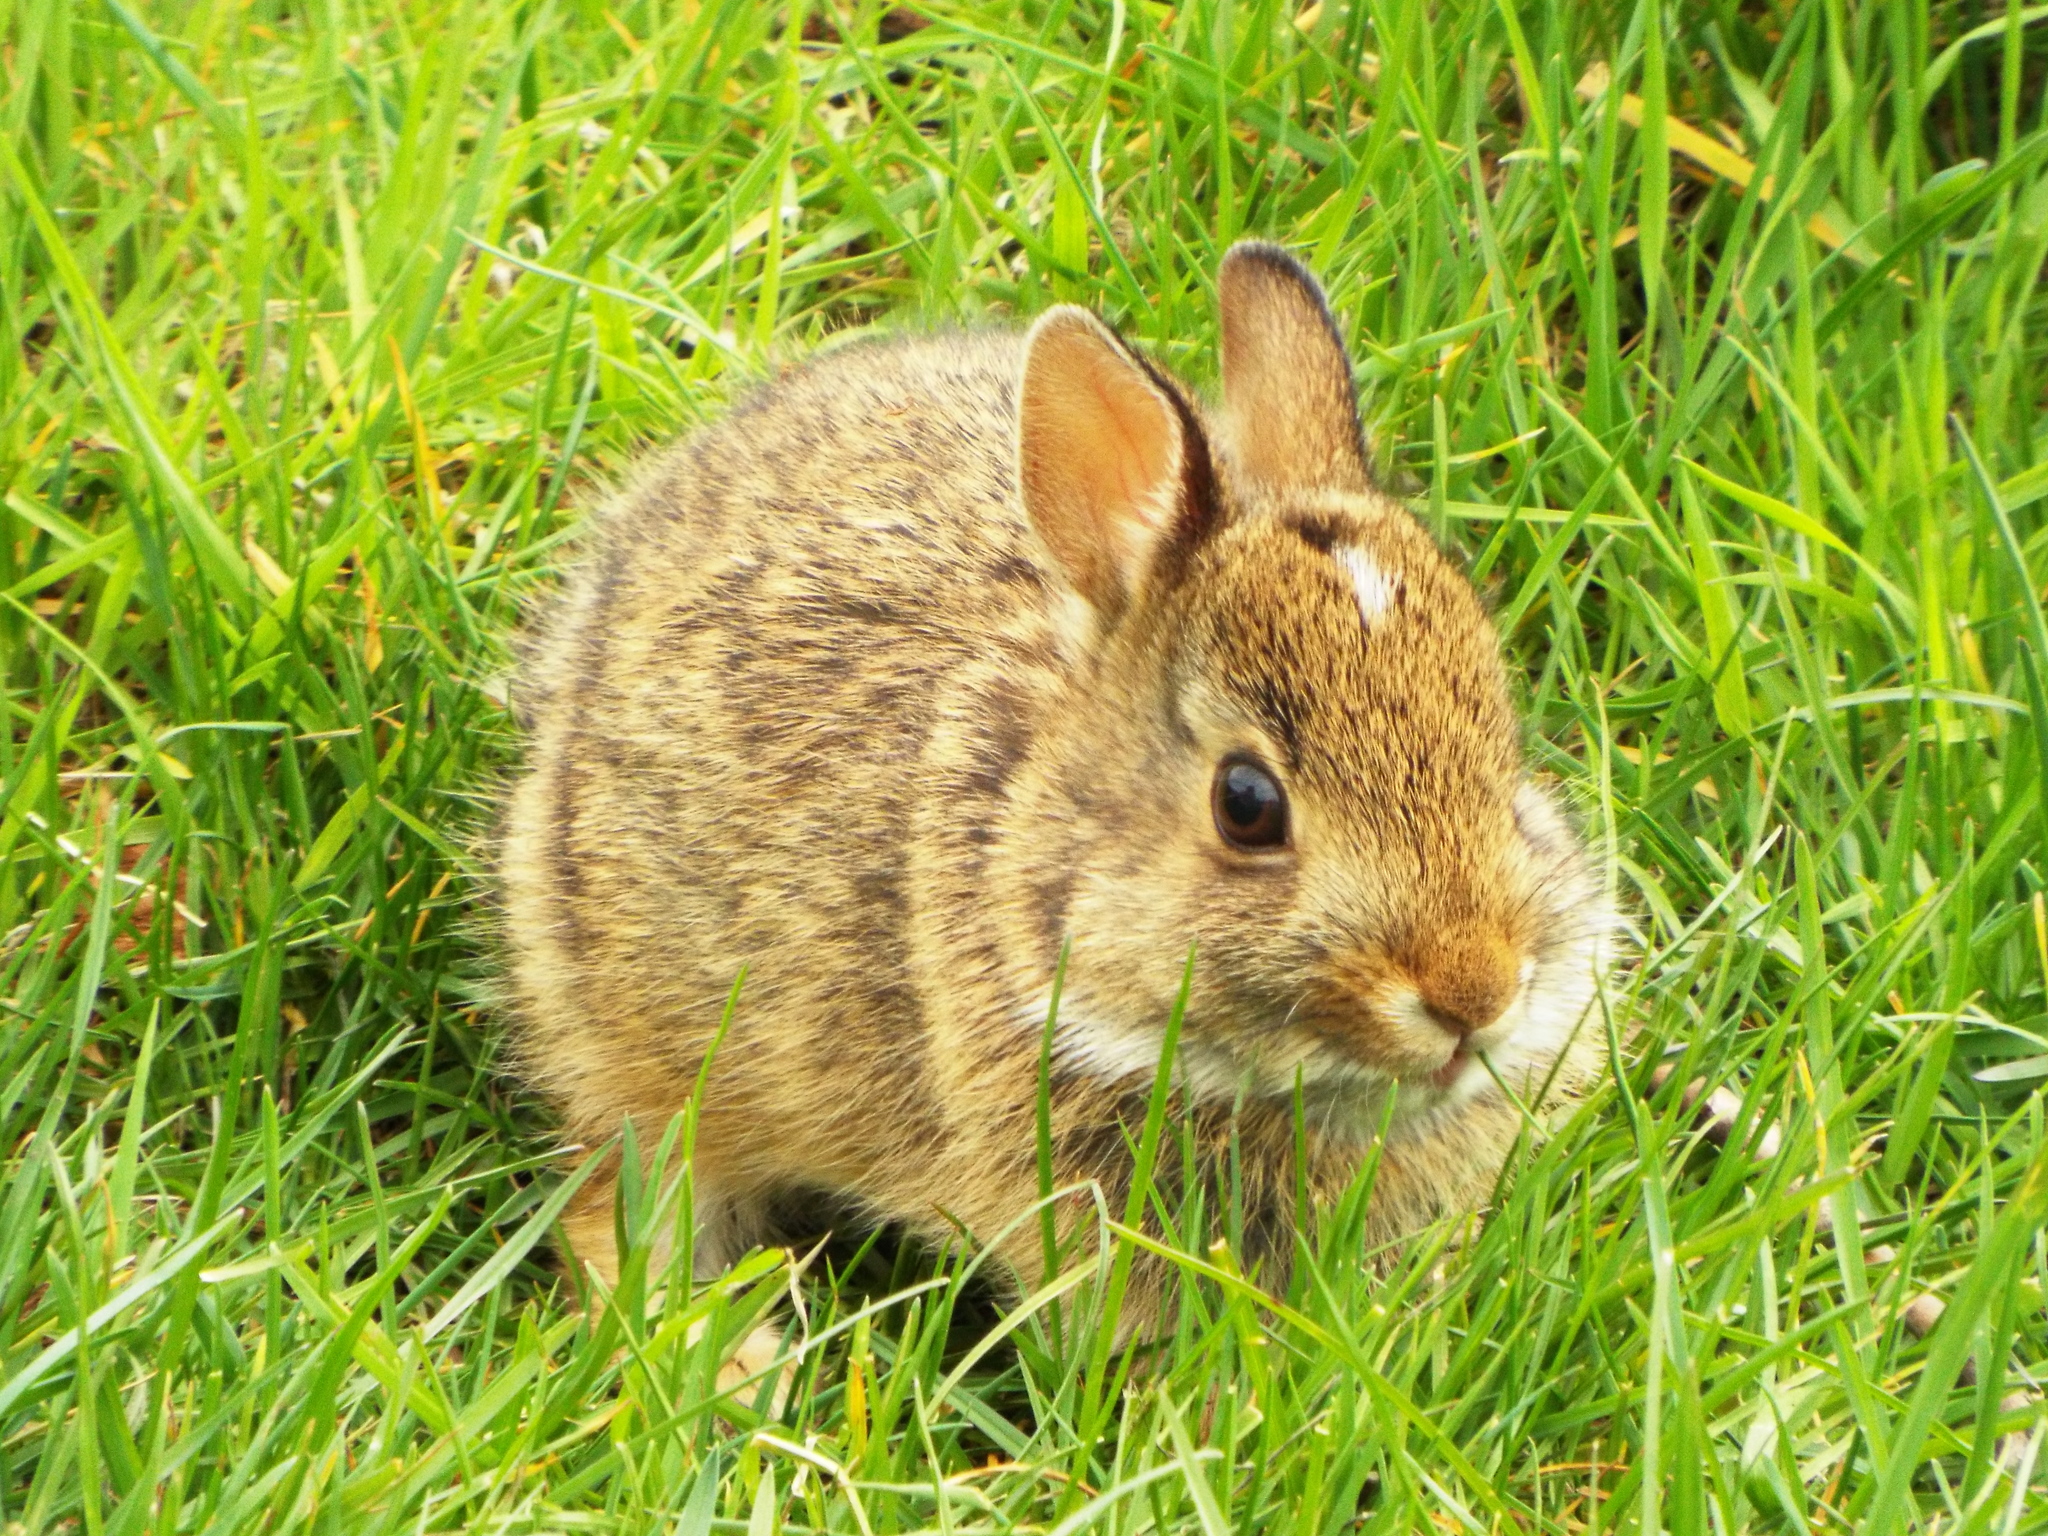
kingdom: Animalia
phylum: Chordata
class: Mammalia
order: Lagomorpha
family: Leporidae
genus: Sylvilagus
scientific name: Sylvilagus floridanus
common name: Eastern cottontail
